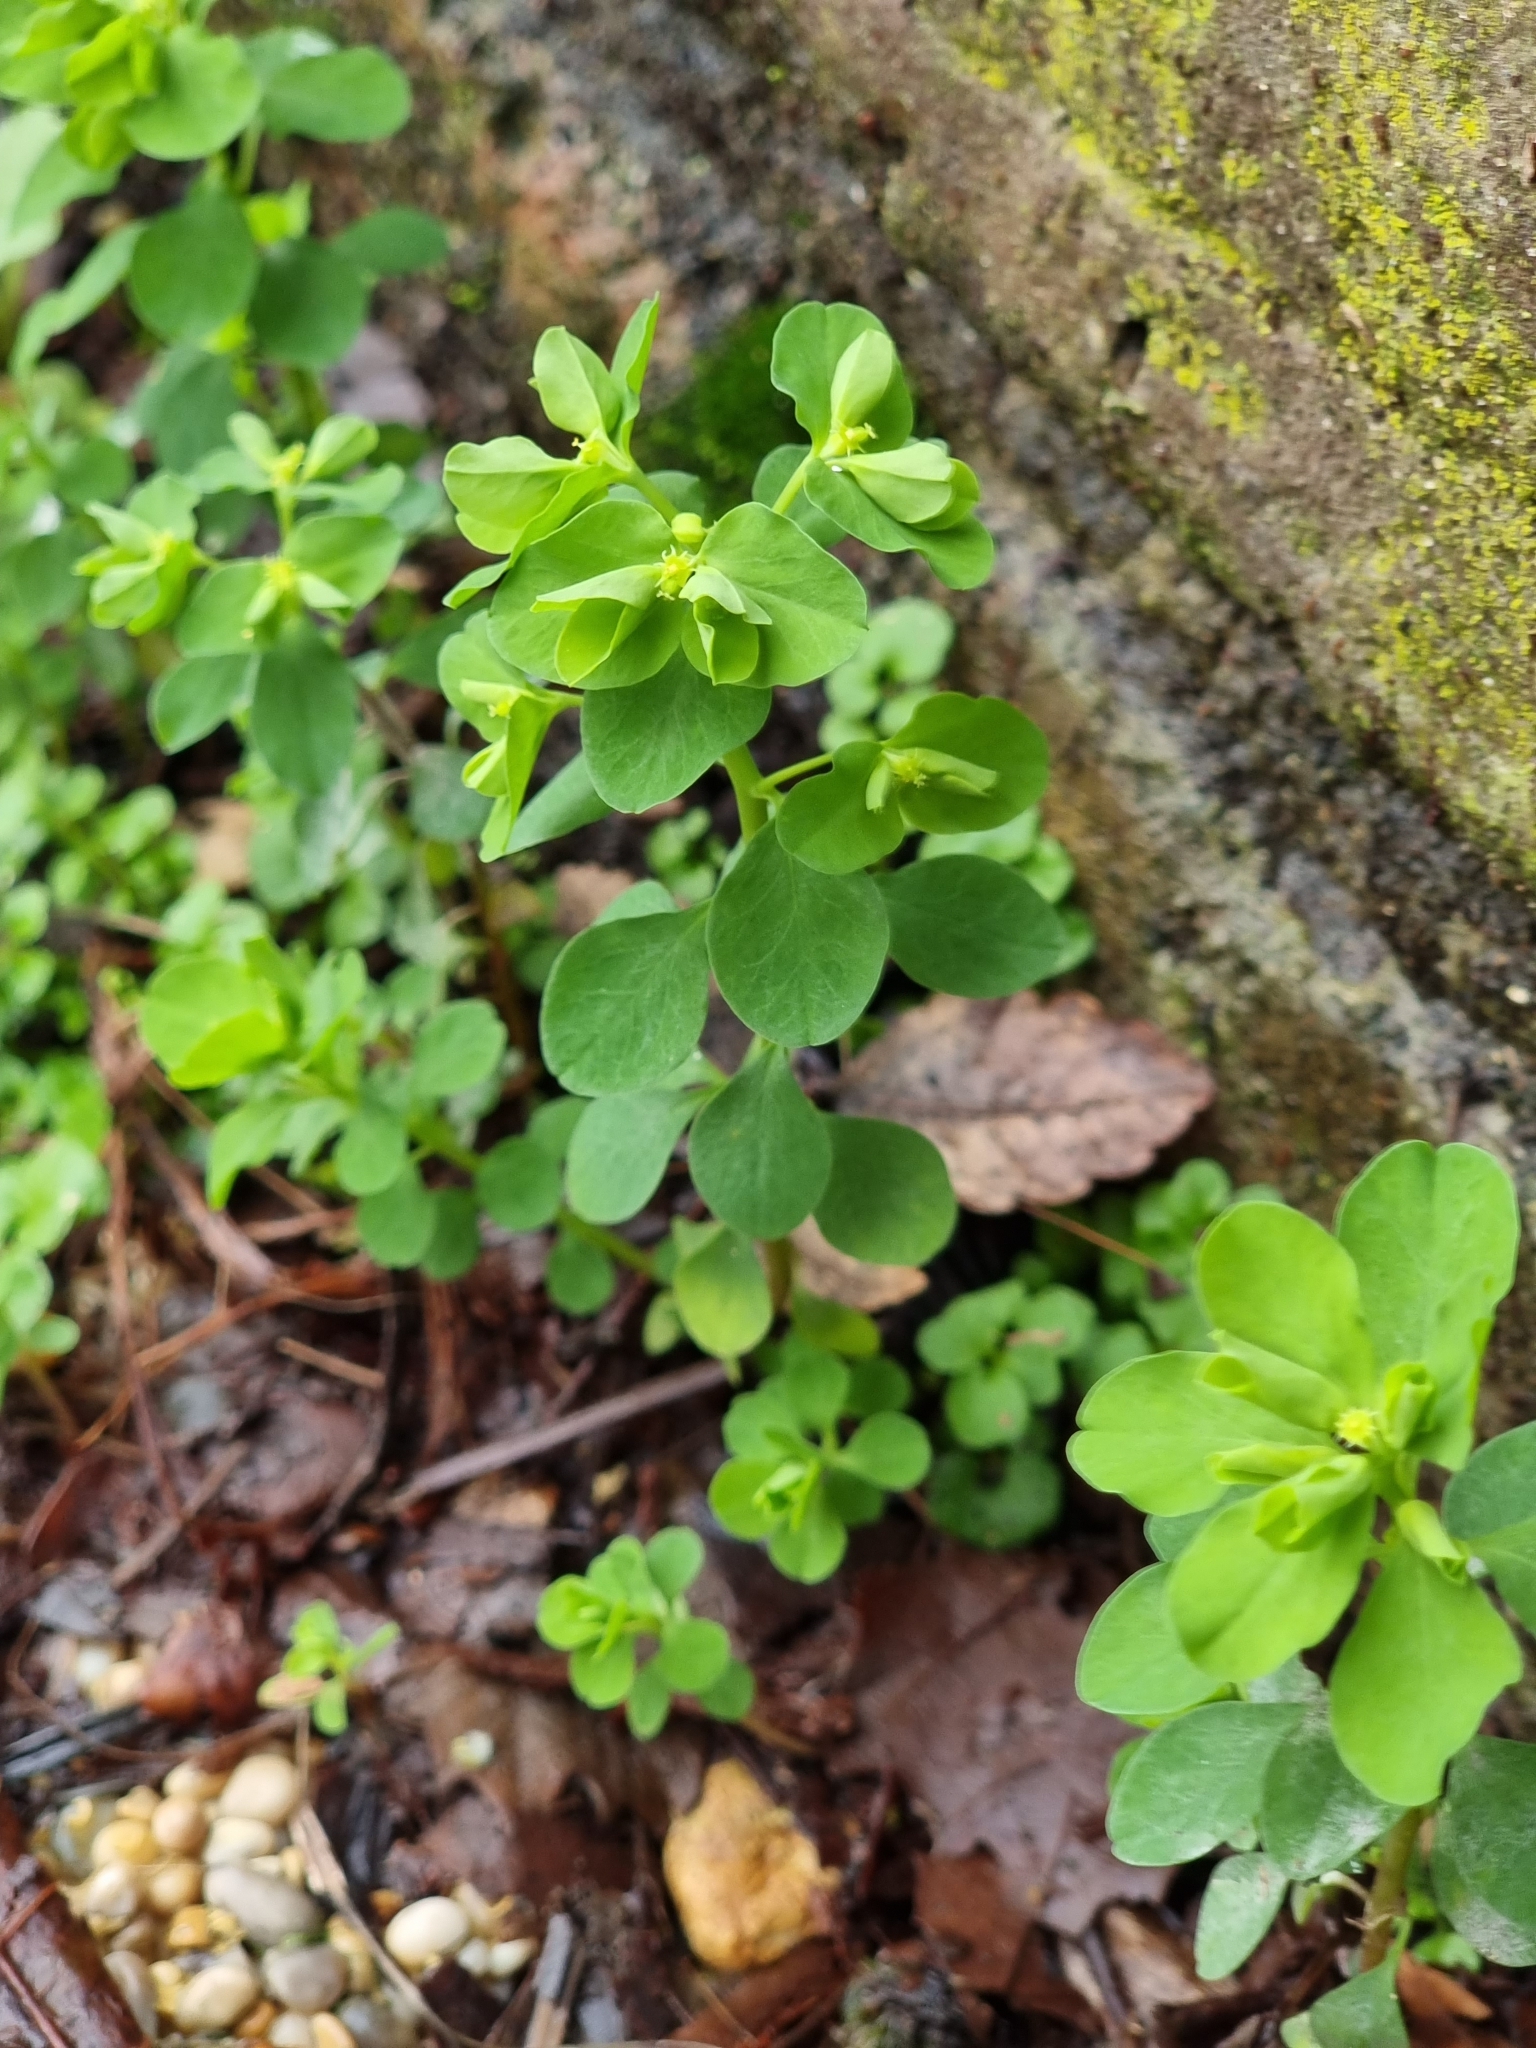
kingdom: Plantae
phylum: Tracheophyta
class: Magnoliopsida
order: Malpighiales
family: Euphorbiaceae
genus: Euphorbia
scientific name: Euphorbia peplus
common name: Petty spurge
